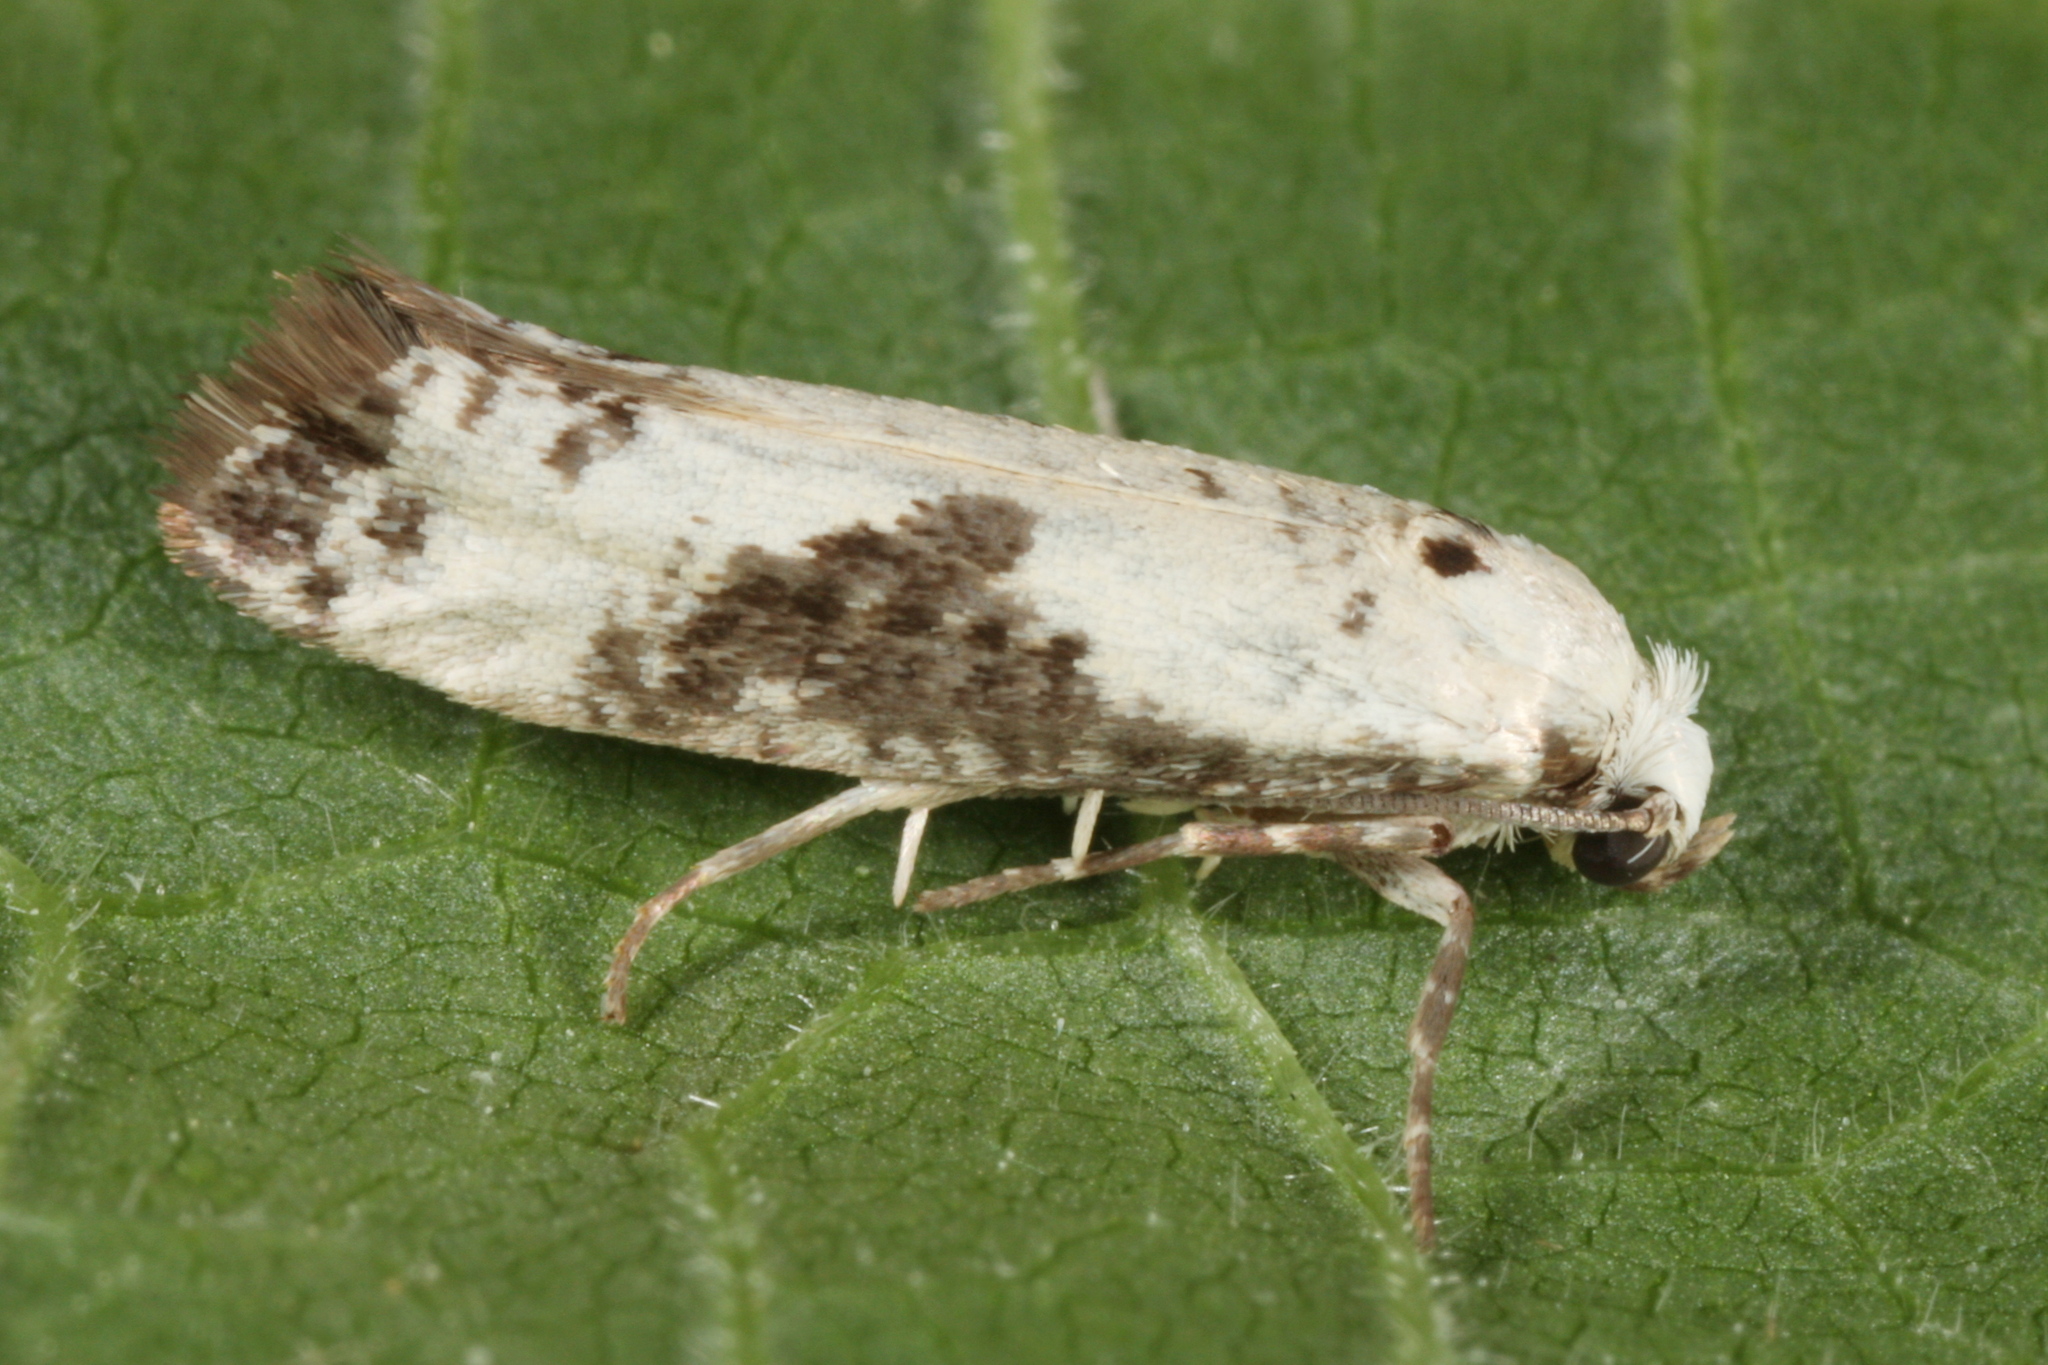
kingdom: Animalia
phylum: Arthropoda
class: Insecta
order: Lepidoptera
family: Praydidae
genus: Prays
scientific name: Prays fraxinella
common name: Ash bud moth
